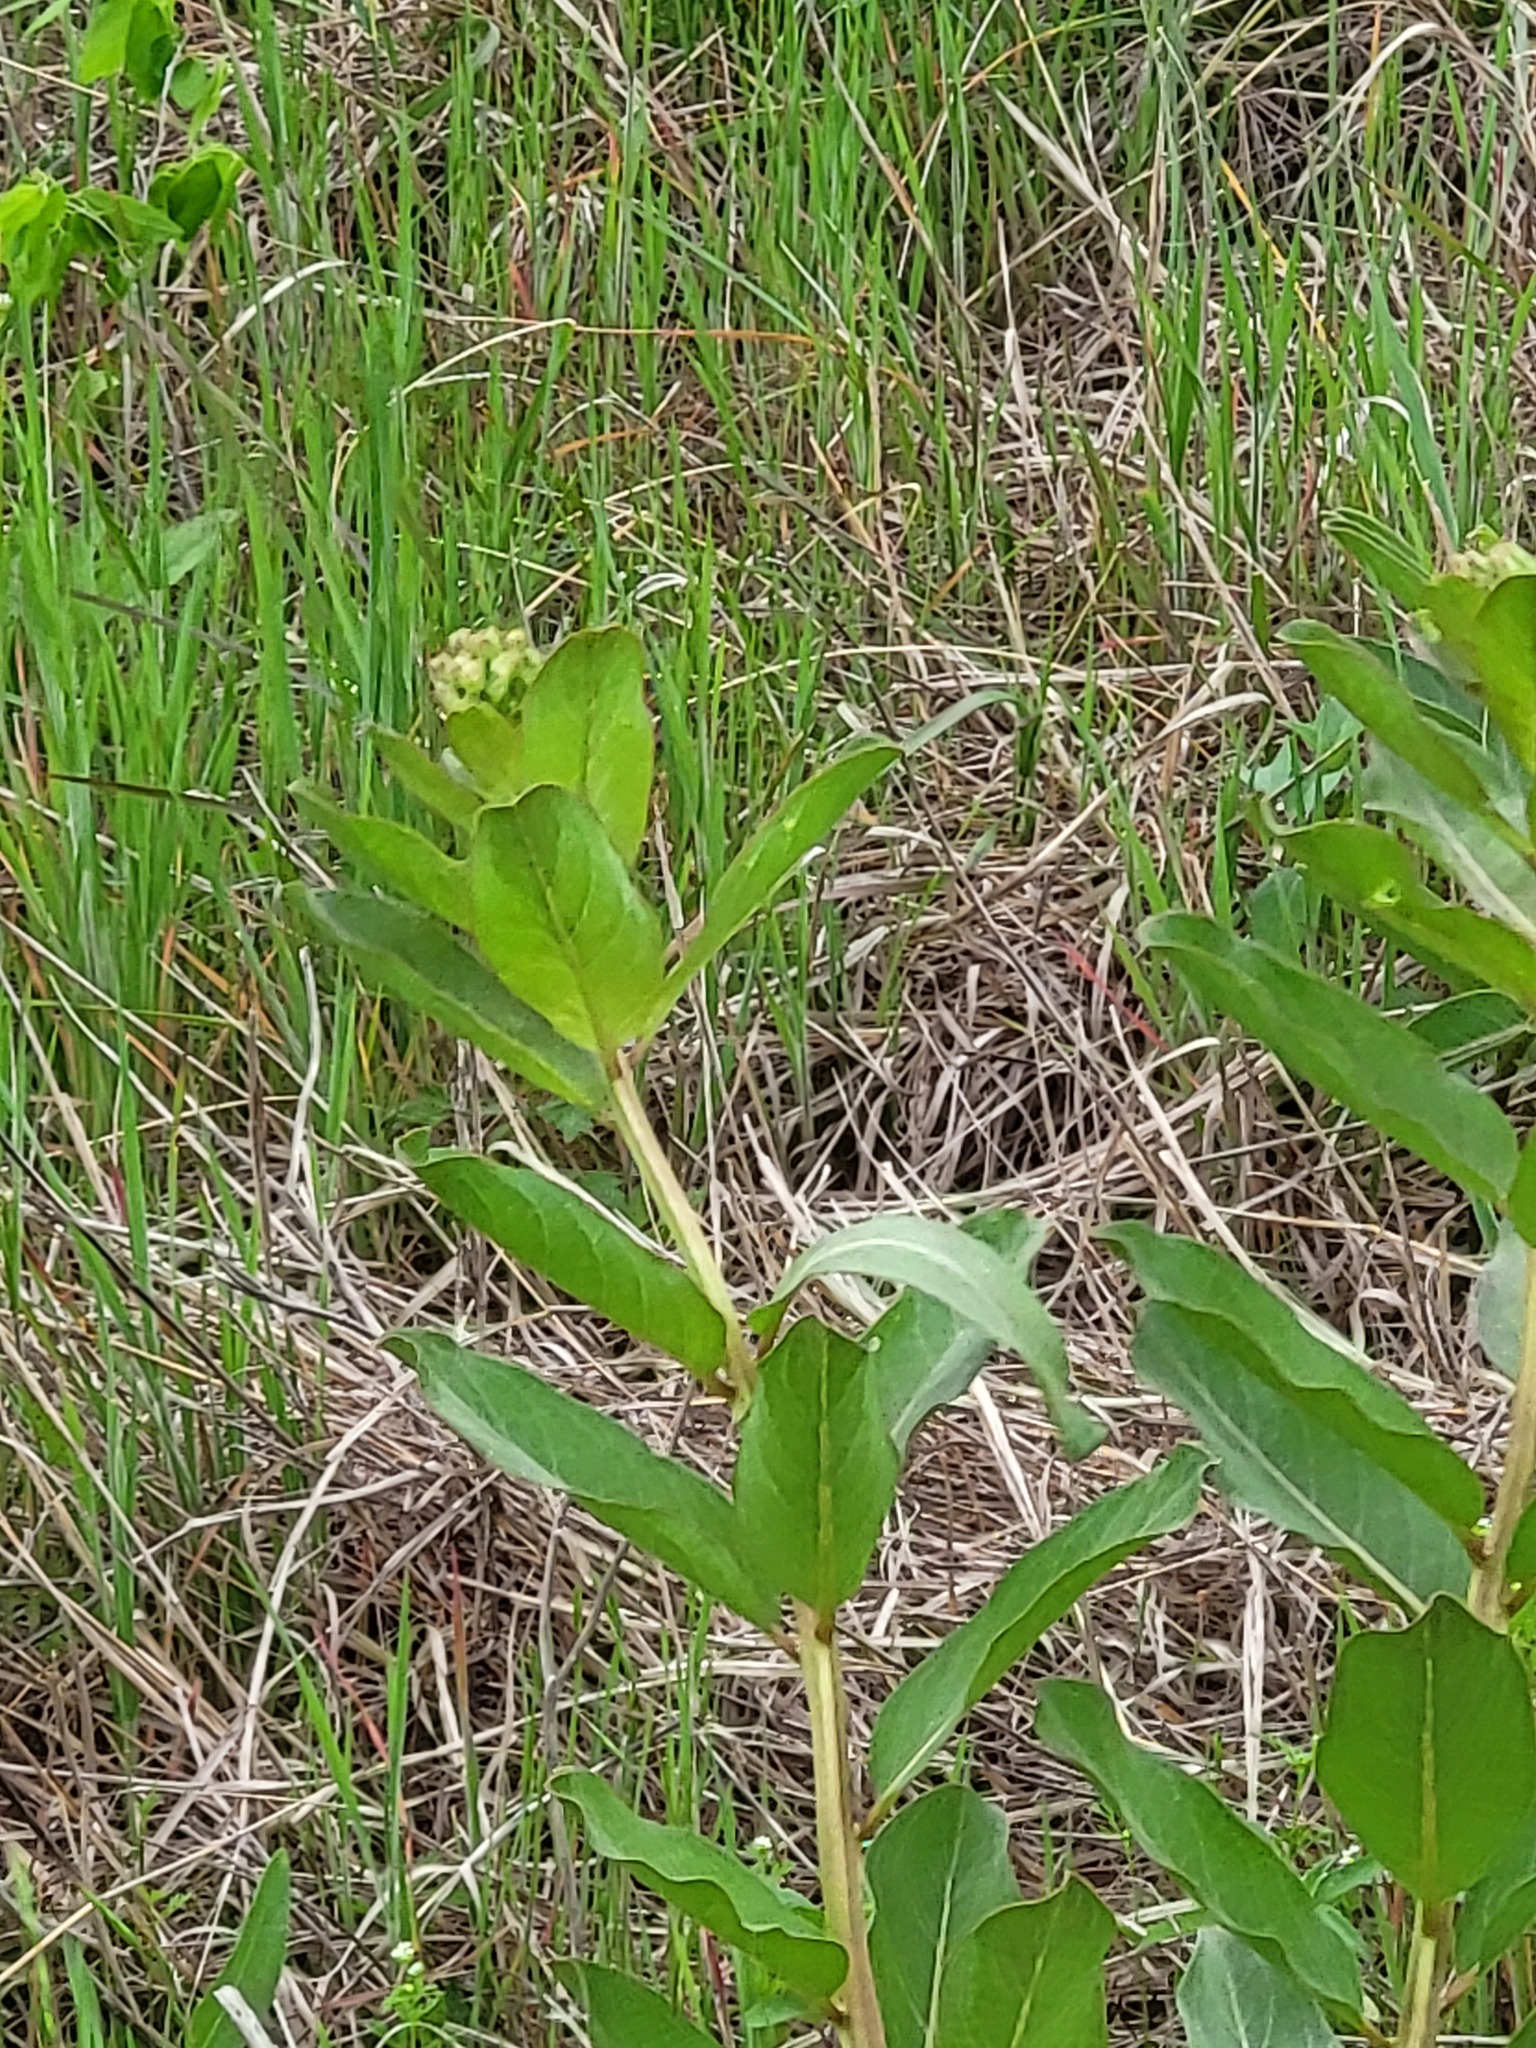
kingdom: Plantae
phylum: Tracheophyta
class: Magnoliopsida
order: Gentianales
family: Apocynaceae
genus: Asclepias
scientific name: Asclepias viridis
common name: Antelope-horns
